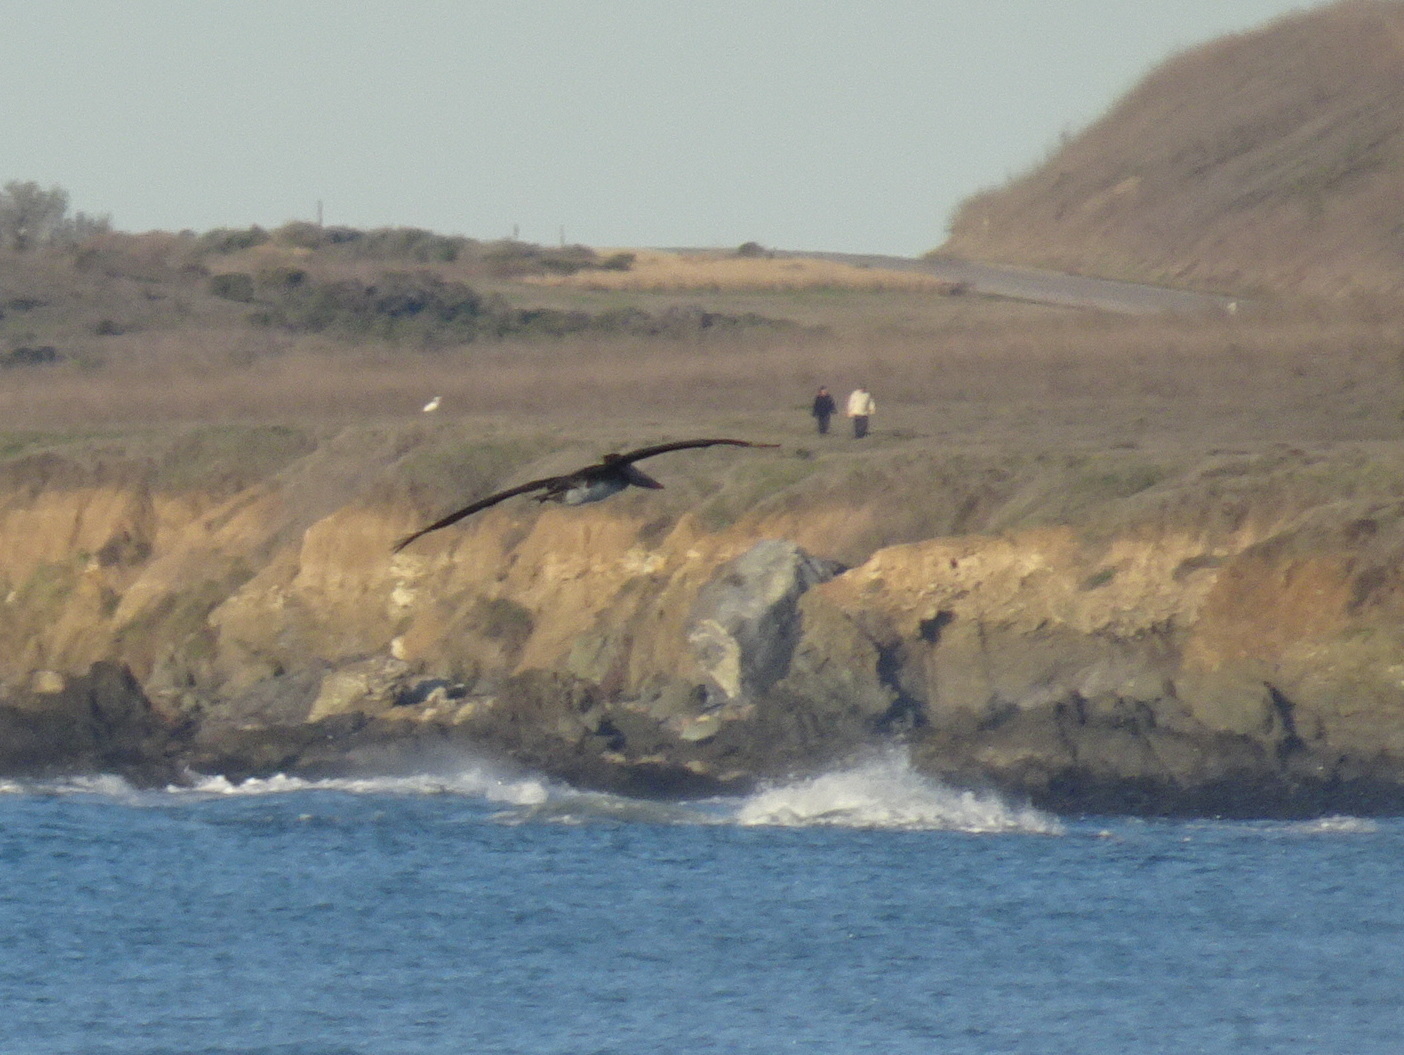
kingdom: Animalia
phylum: Chordata
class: Aves
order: Pelecaniformes
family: Pelecanidae
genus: Pelecanus
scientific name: Pelecanus occidentalis
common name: Brown pelican
